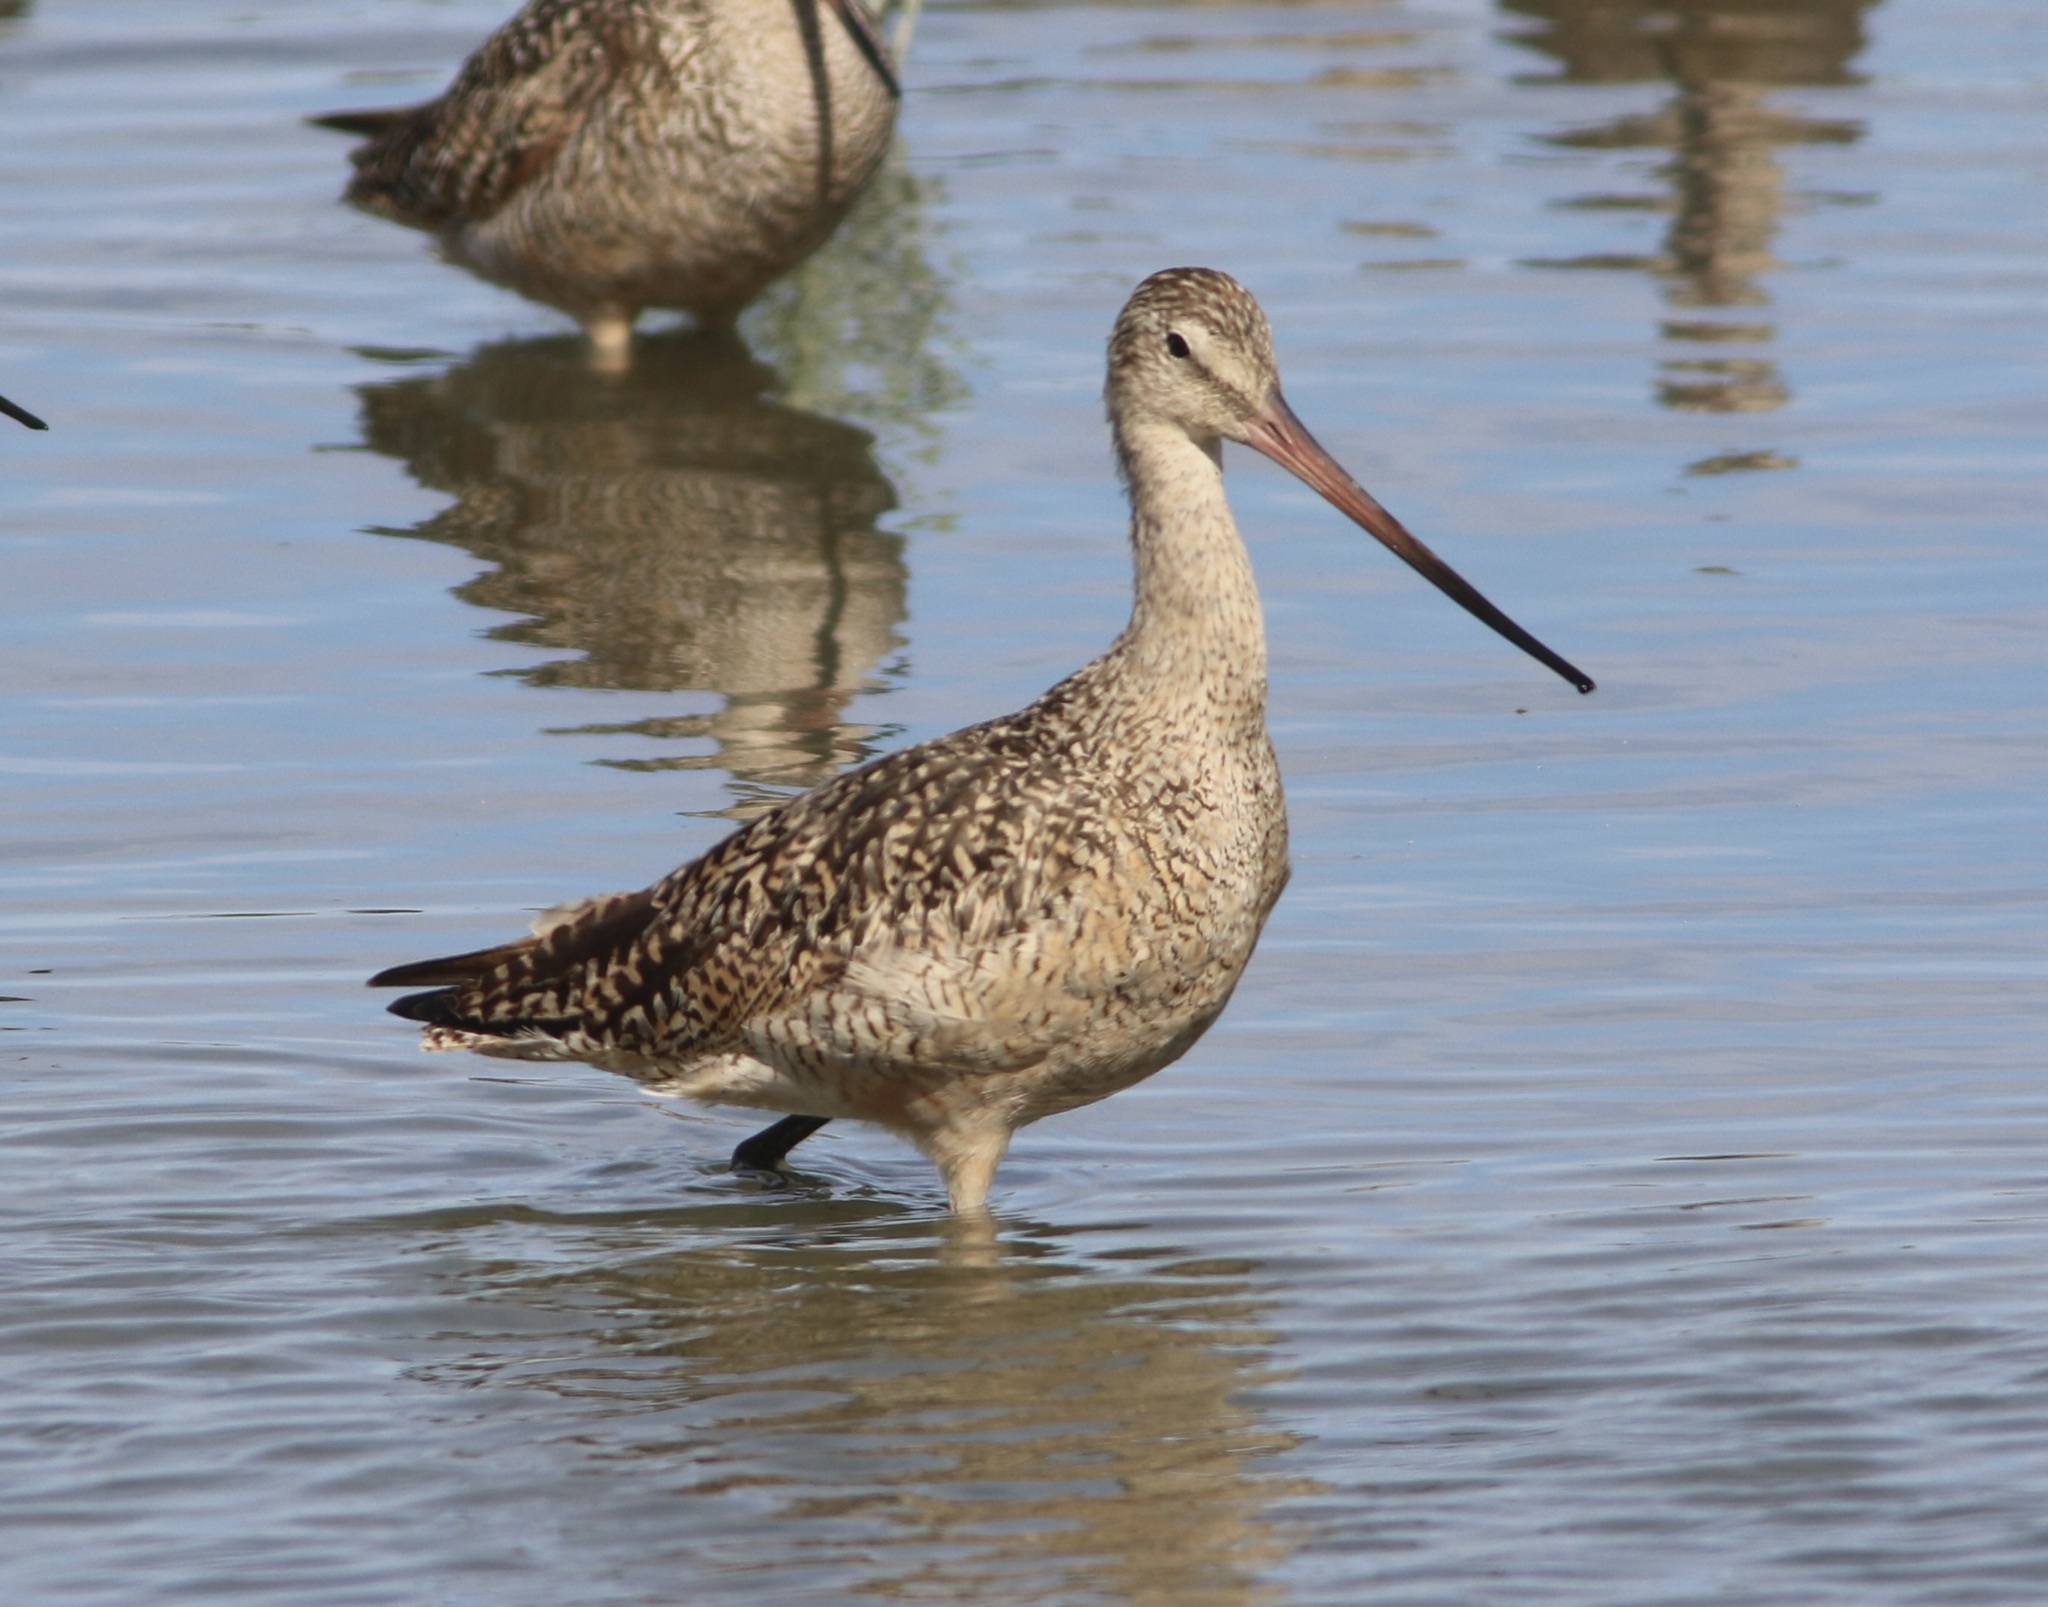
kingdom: Animalia
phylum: Chordata
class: Aves
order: Charadriiformes
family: Scolopacidae
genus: Limosa
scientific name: Limosa fedoa
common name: Marbled godwit
